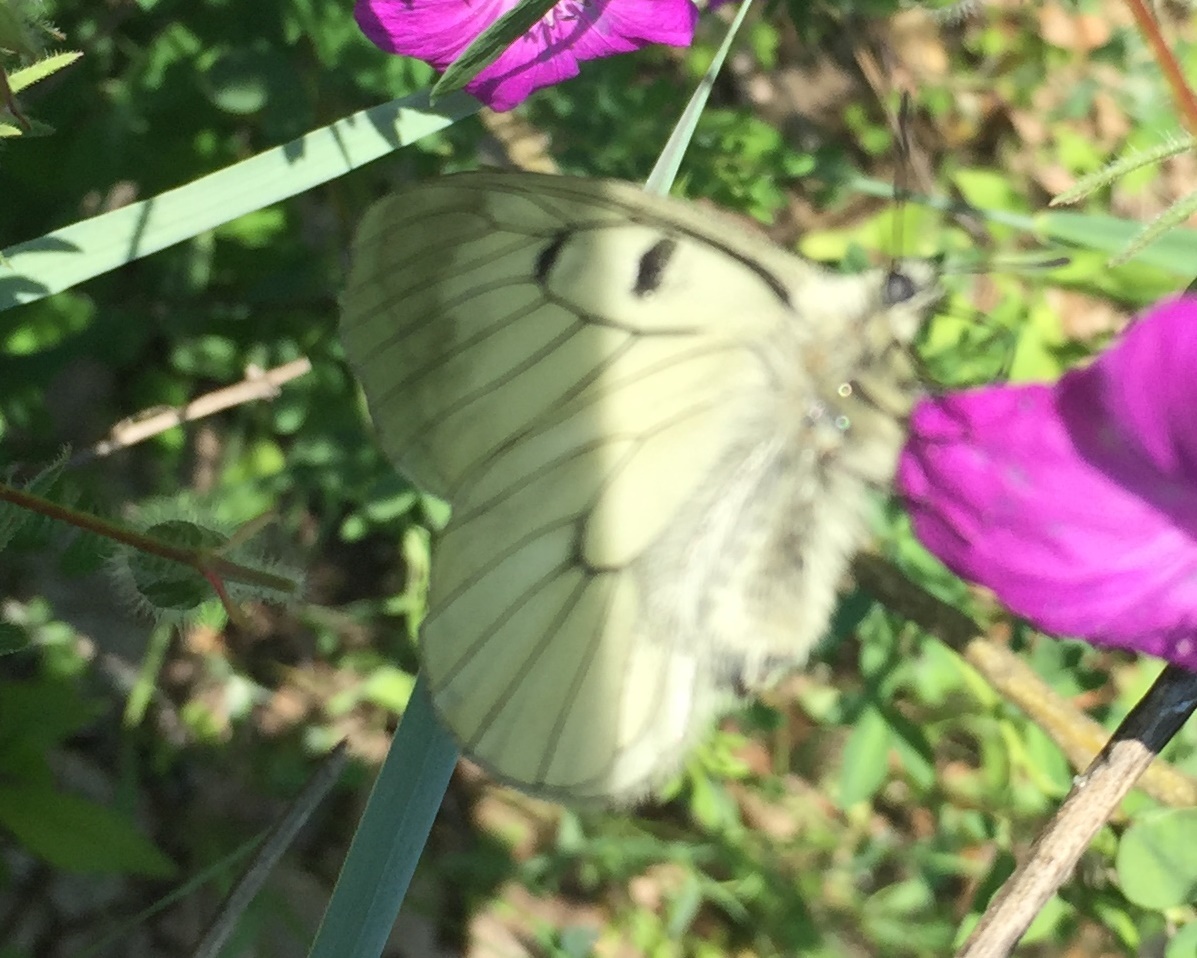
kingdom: Animalia
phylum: Arthropoda
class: Insecta
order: Lepidoptera
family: Papilionidae
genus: Parnassius
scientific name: Parnassius mnemosyne
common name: Clouded apollo
